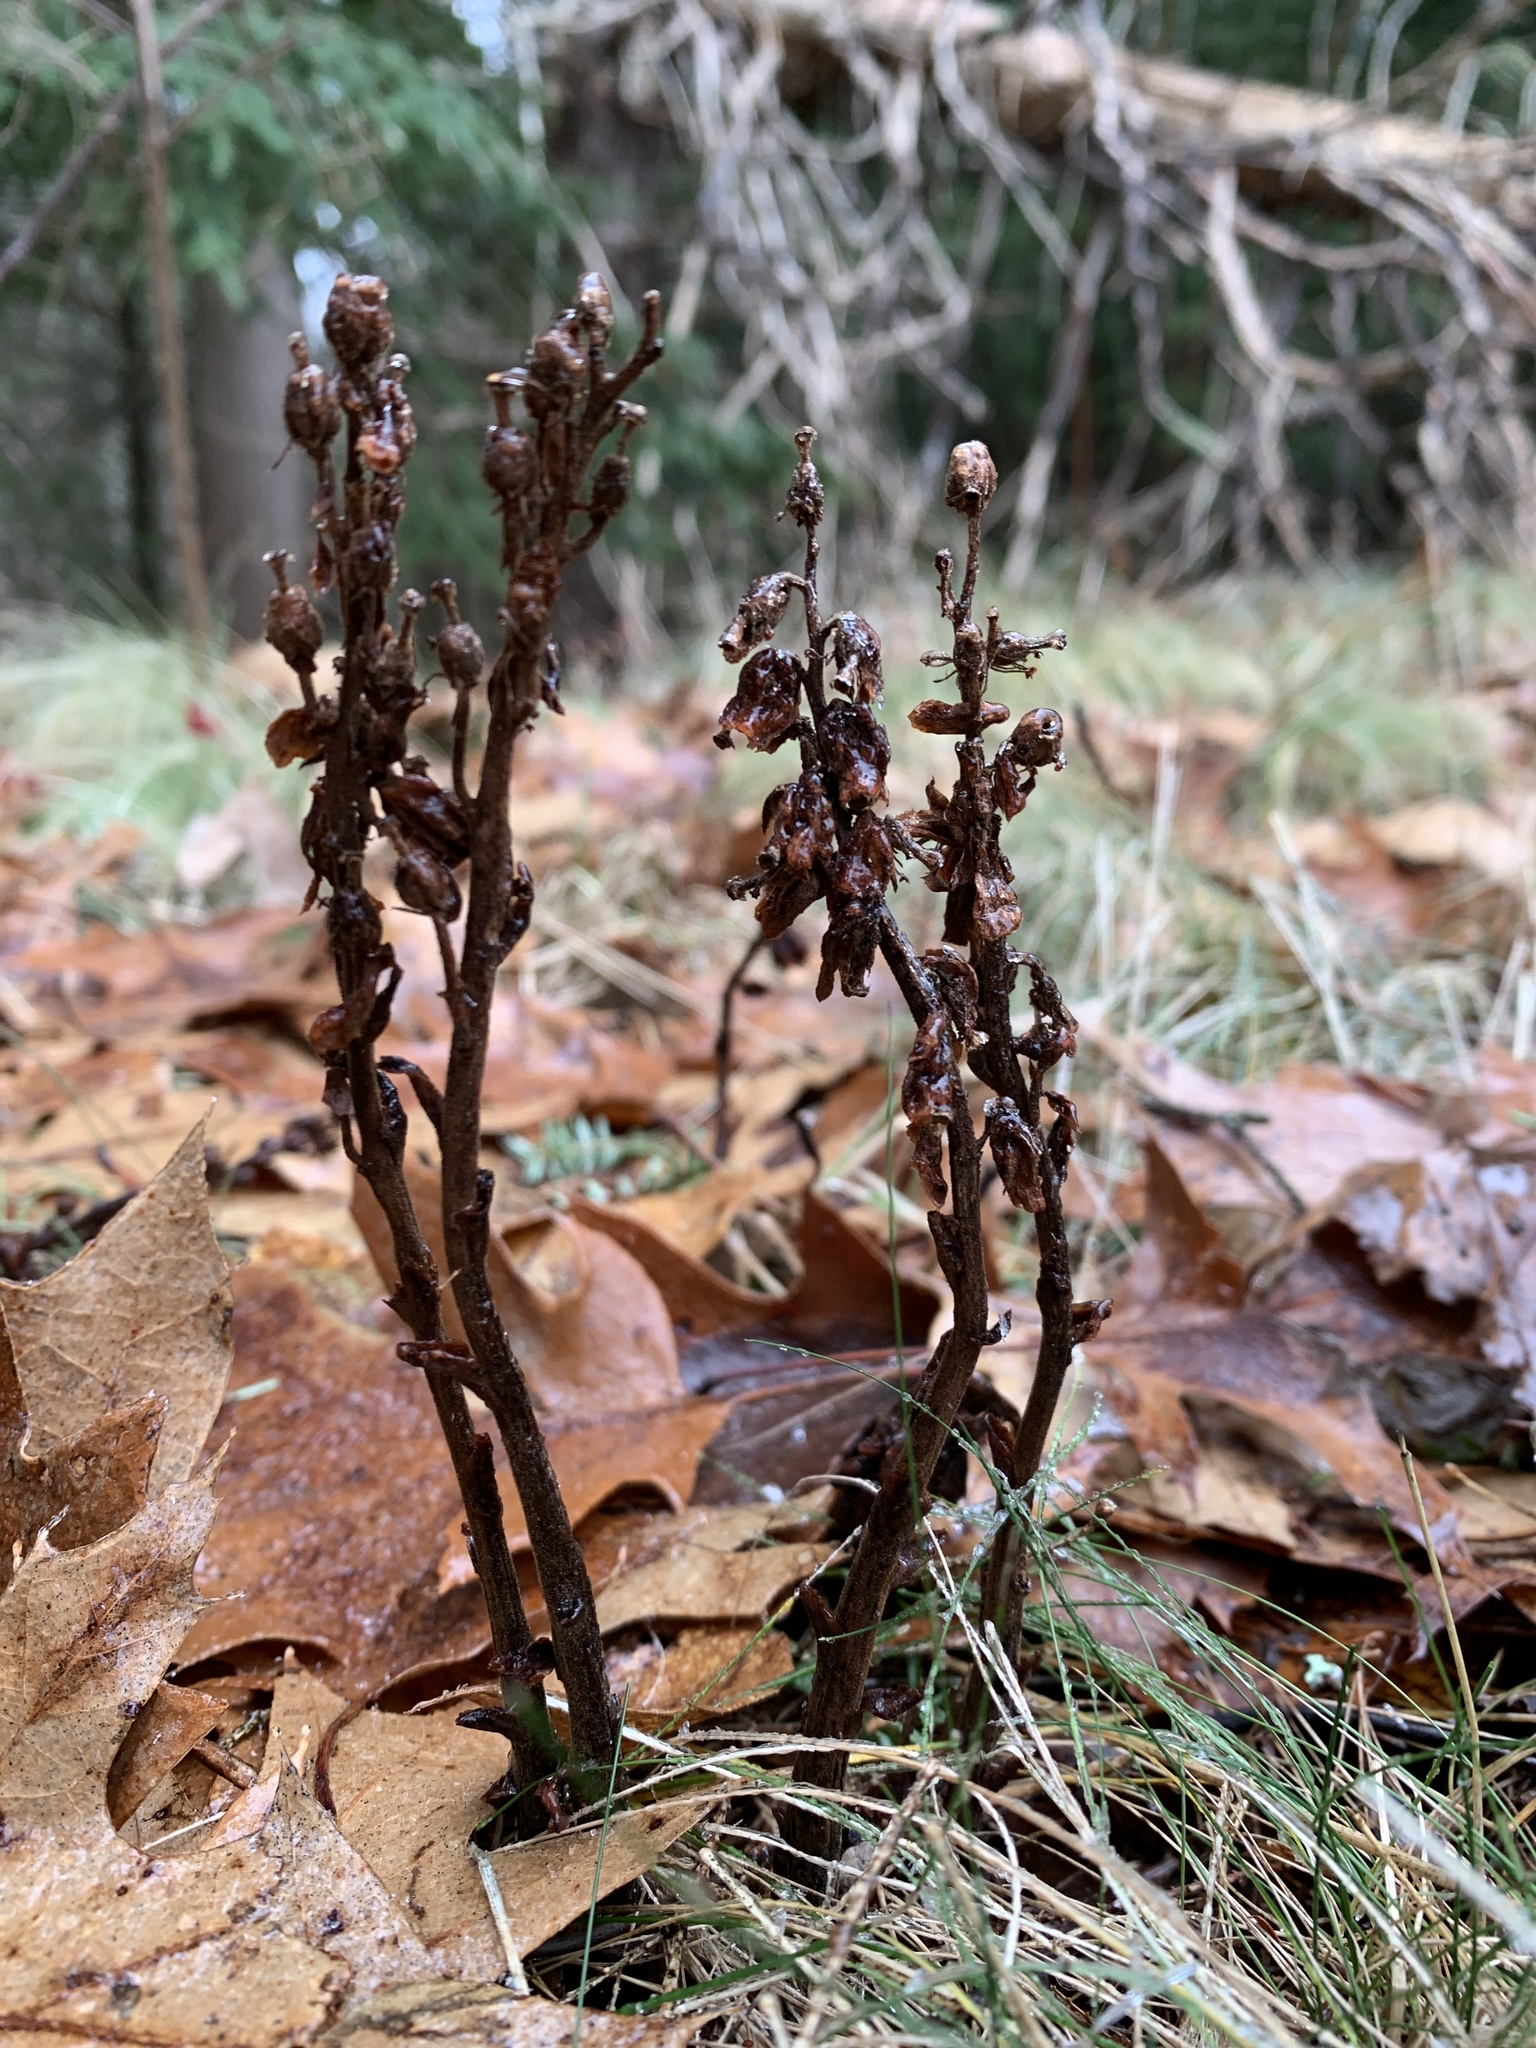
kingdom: Plantae
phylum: Tracheophyta
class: Magnoliopsida
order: Ericales
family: Ericaceae
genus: Hypopitys
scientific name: Hypopitys monotropa
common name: Yellow bird's-nest
